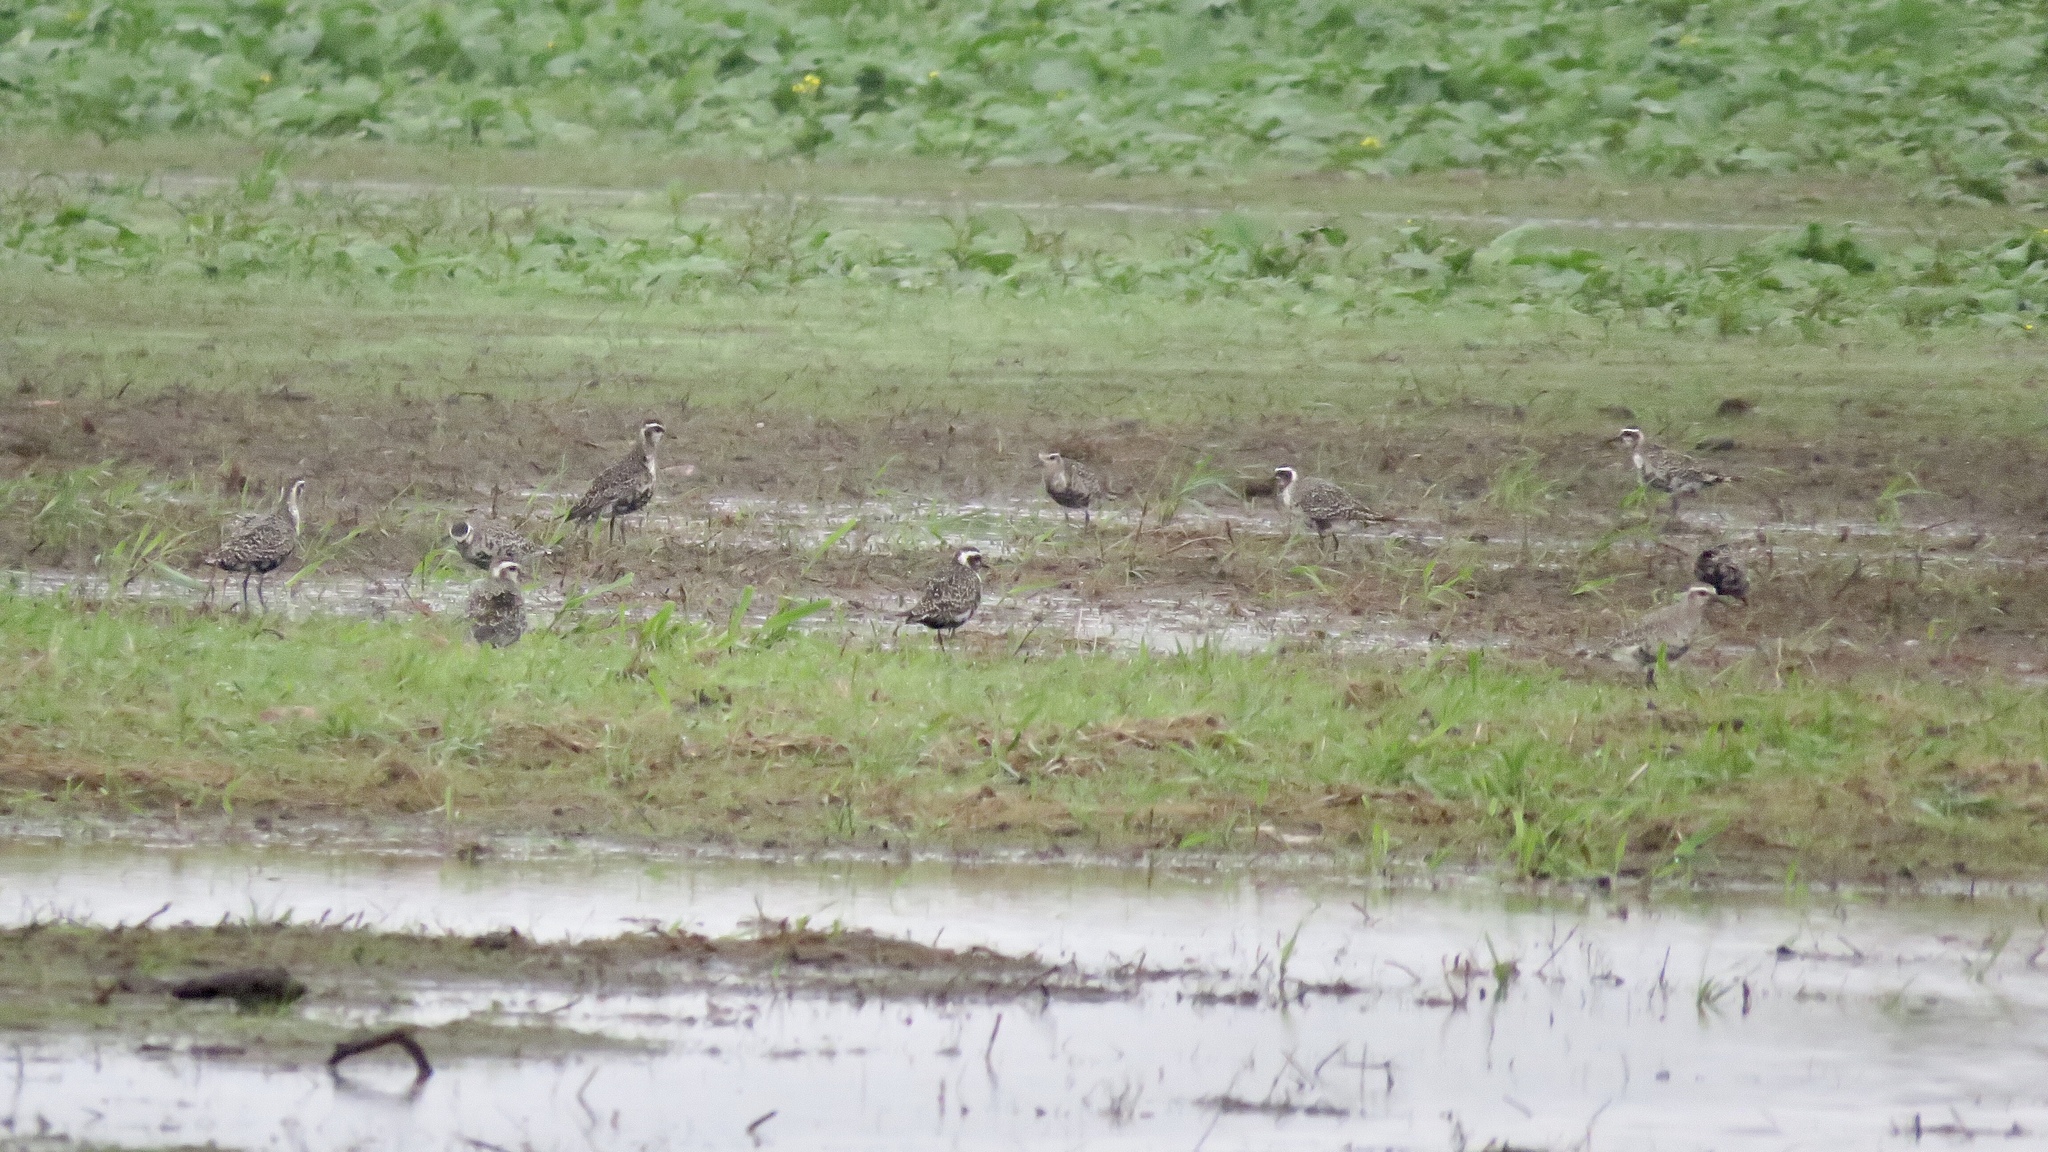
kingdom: Animalia
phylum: Chordata
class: Aves
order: Charadriiformes
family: Charadriidae
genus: Pluvialis
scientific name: Pluvialis dominica
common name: American golden plover
